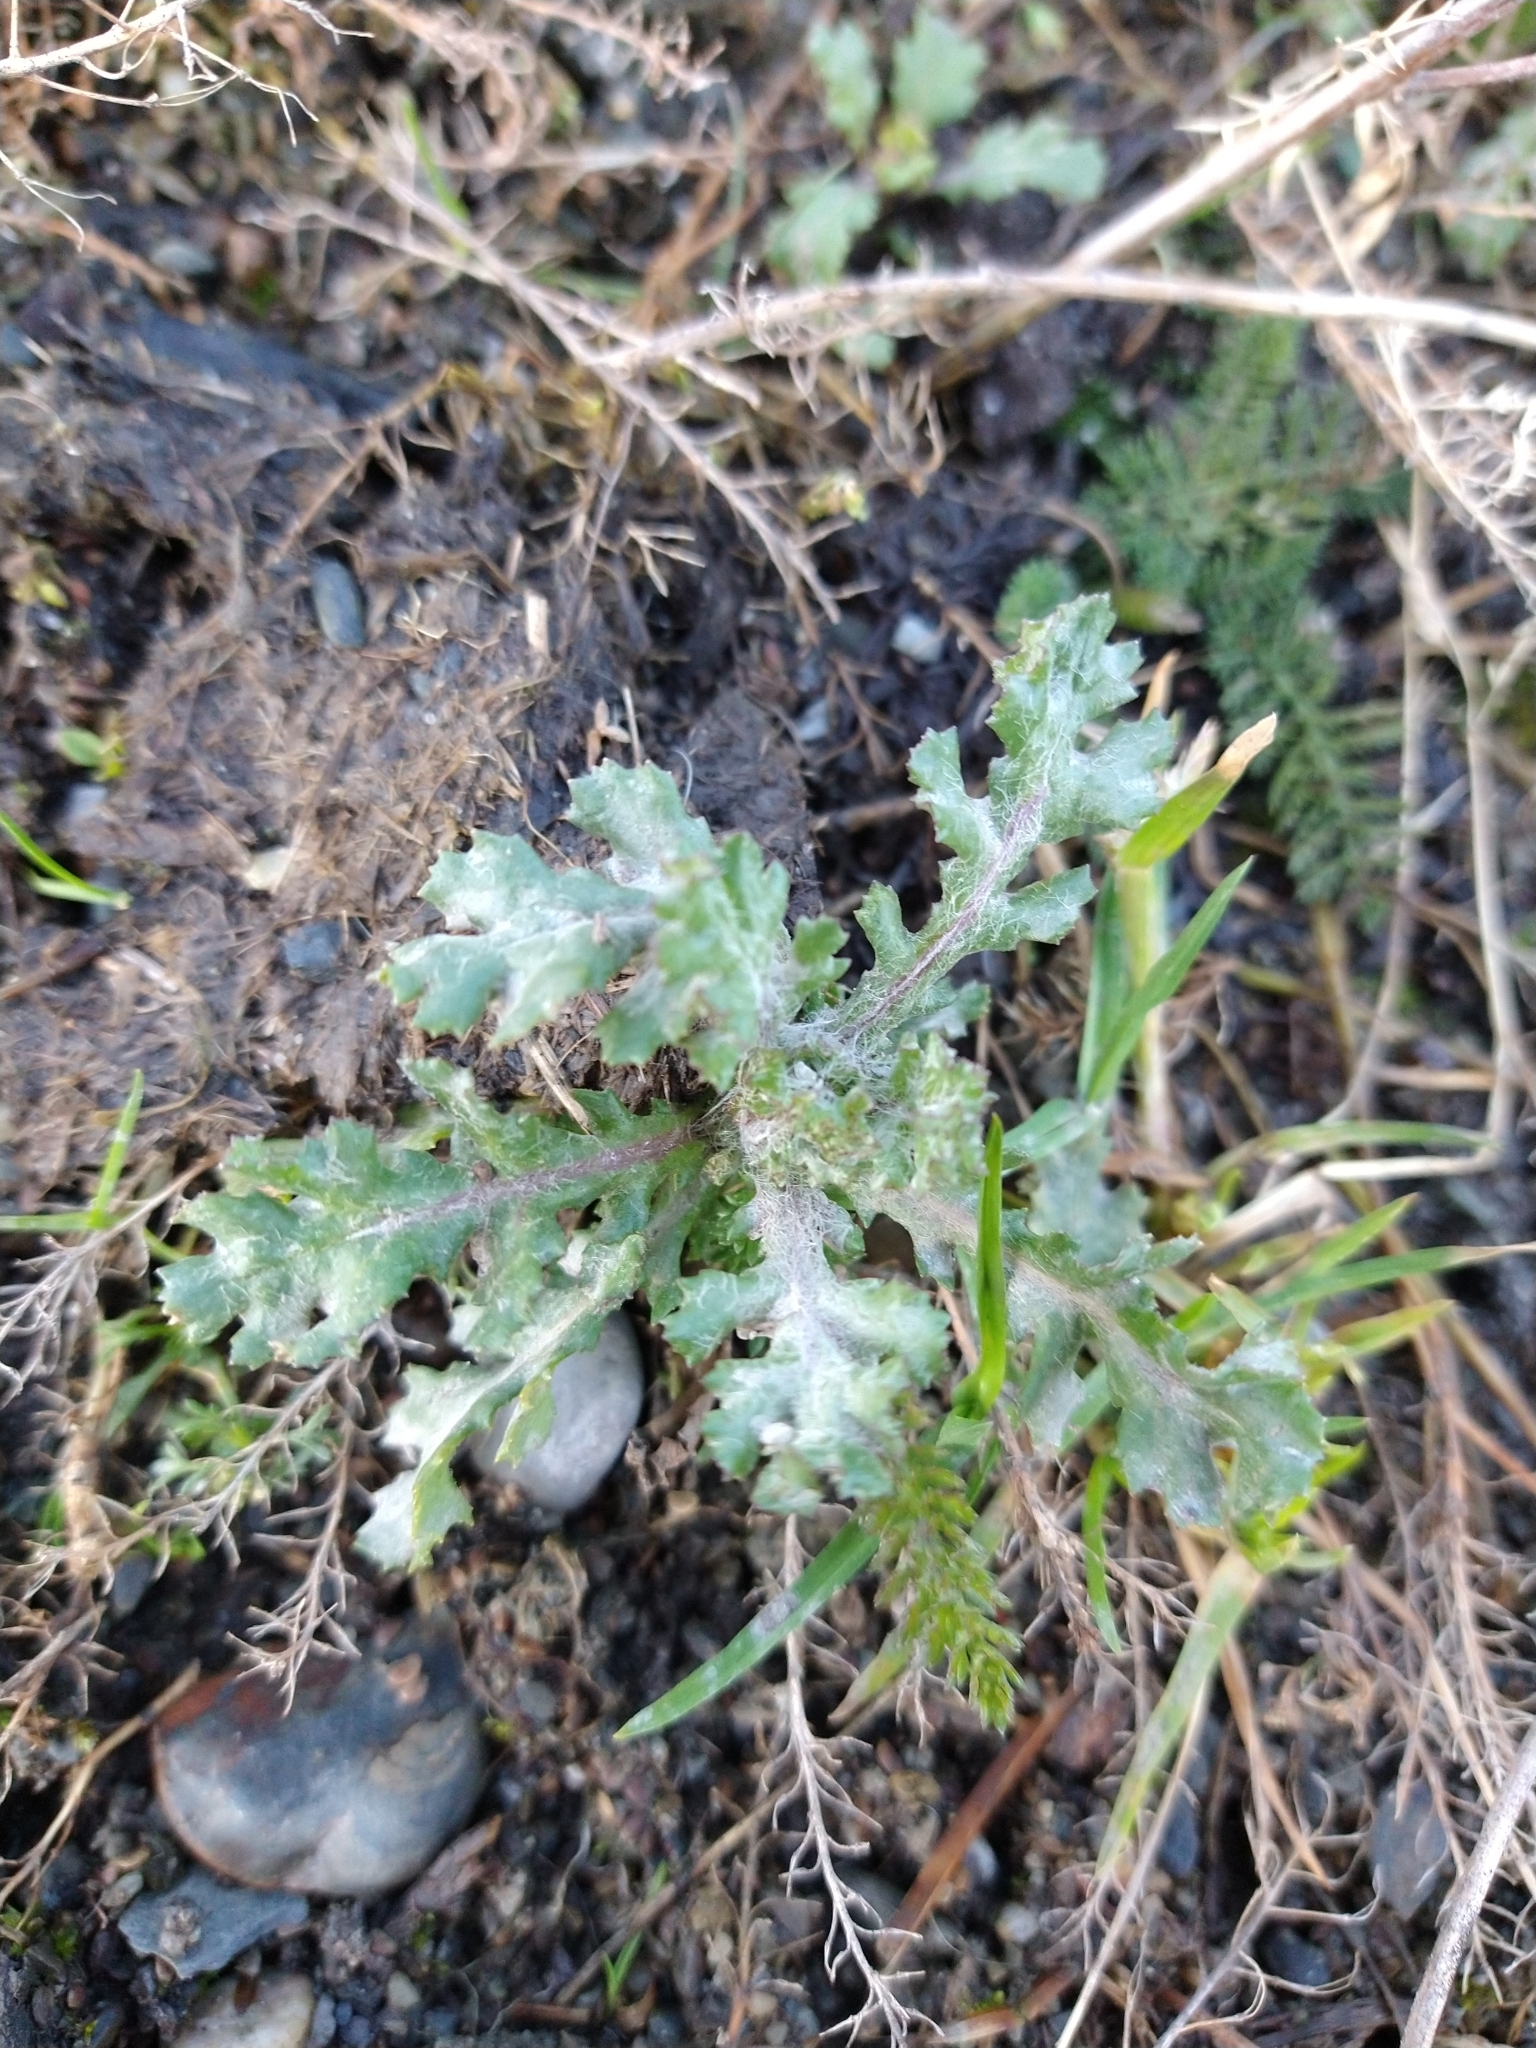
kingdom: Plantae
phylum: Tracheophyta
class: Magnoliopsida
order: Asterales
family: Asteraceae
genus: Senecio
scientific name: Senecio vulgaris
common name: Old-man-in-the-spring
